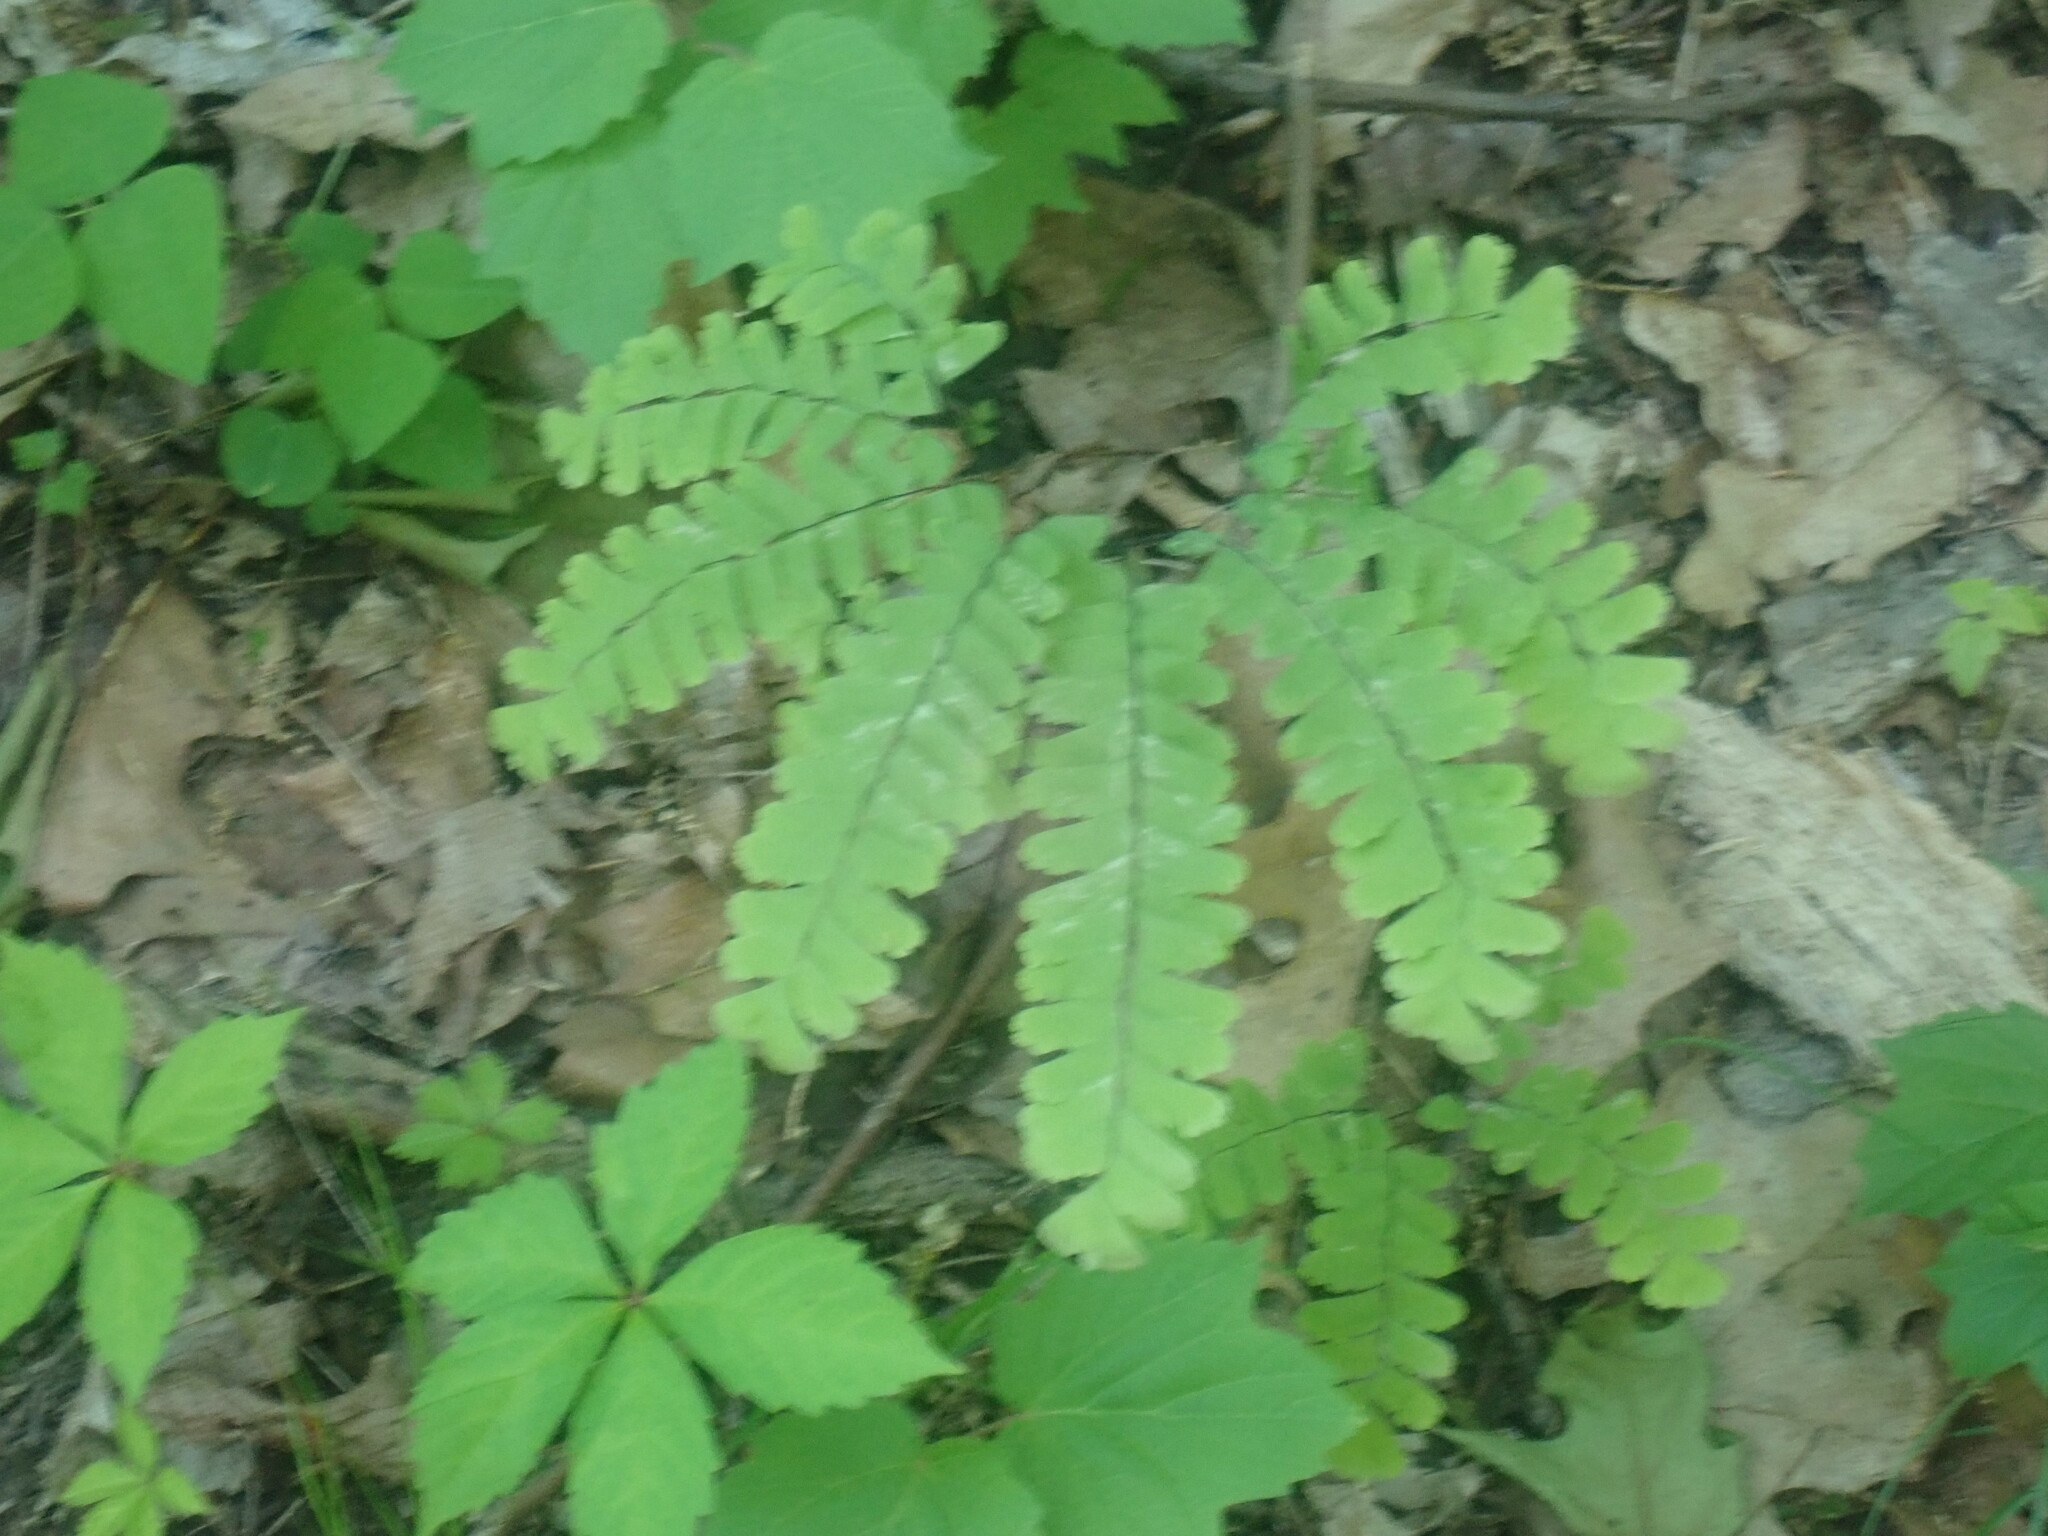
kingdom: Plantae
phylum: Tracheophyta
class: Polypodiopsida
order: Polypodiales
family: Pteridaceae
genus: Adiantum
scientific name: Adiantum pedatum
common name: Five-finger fern
